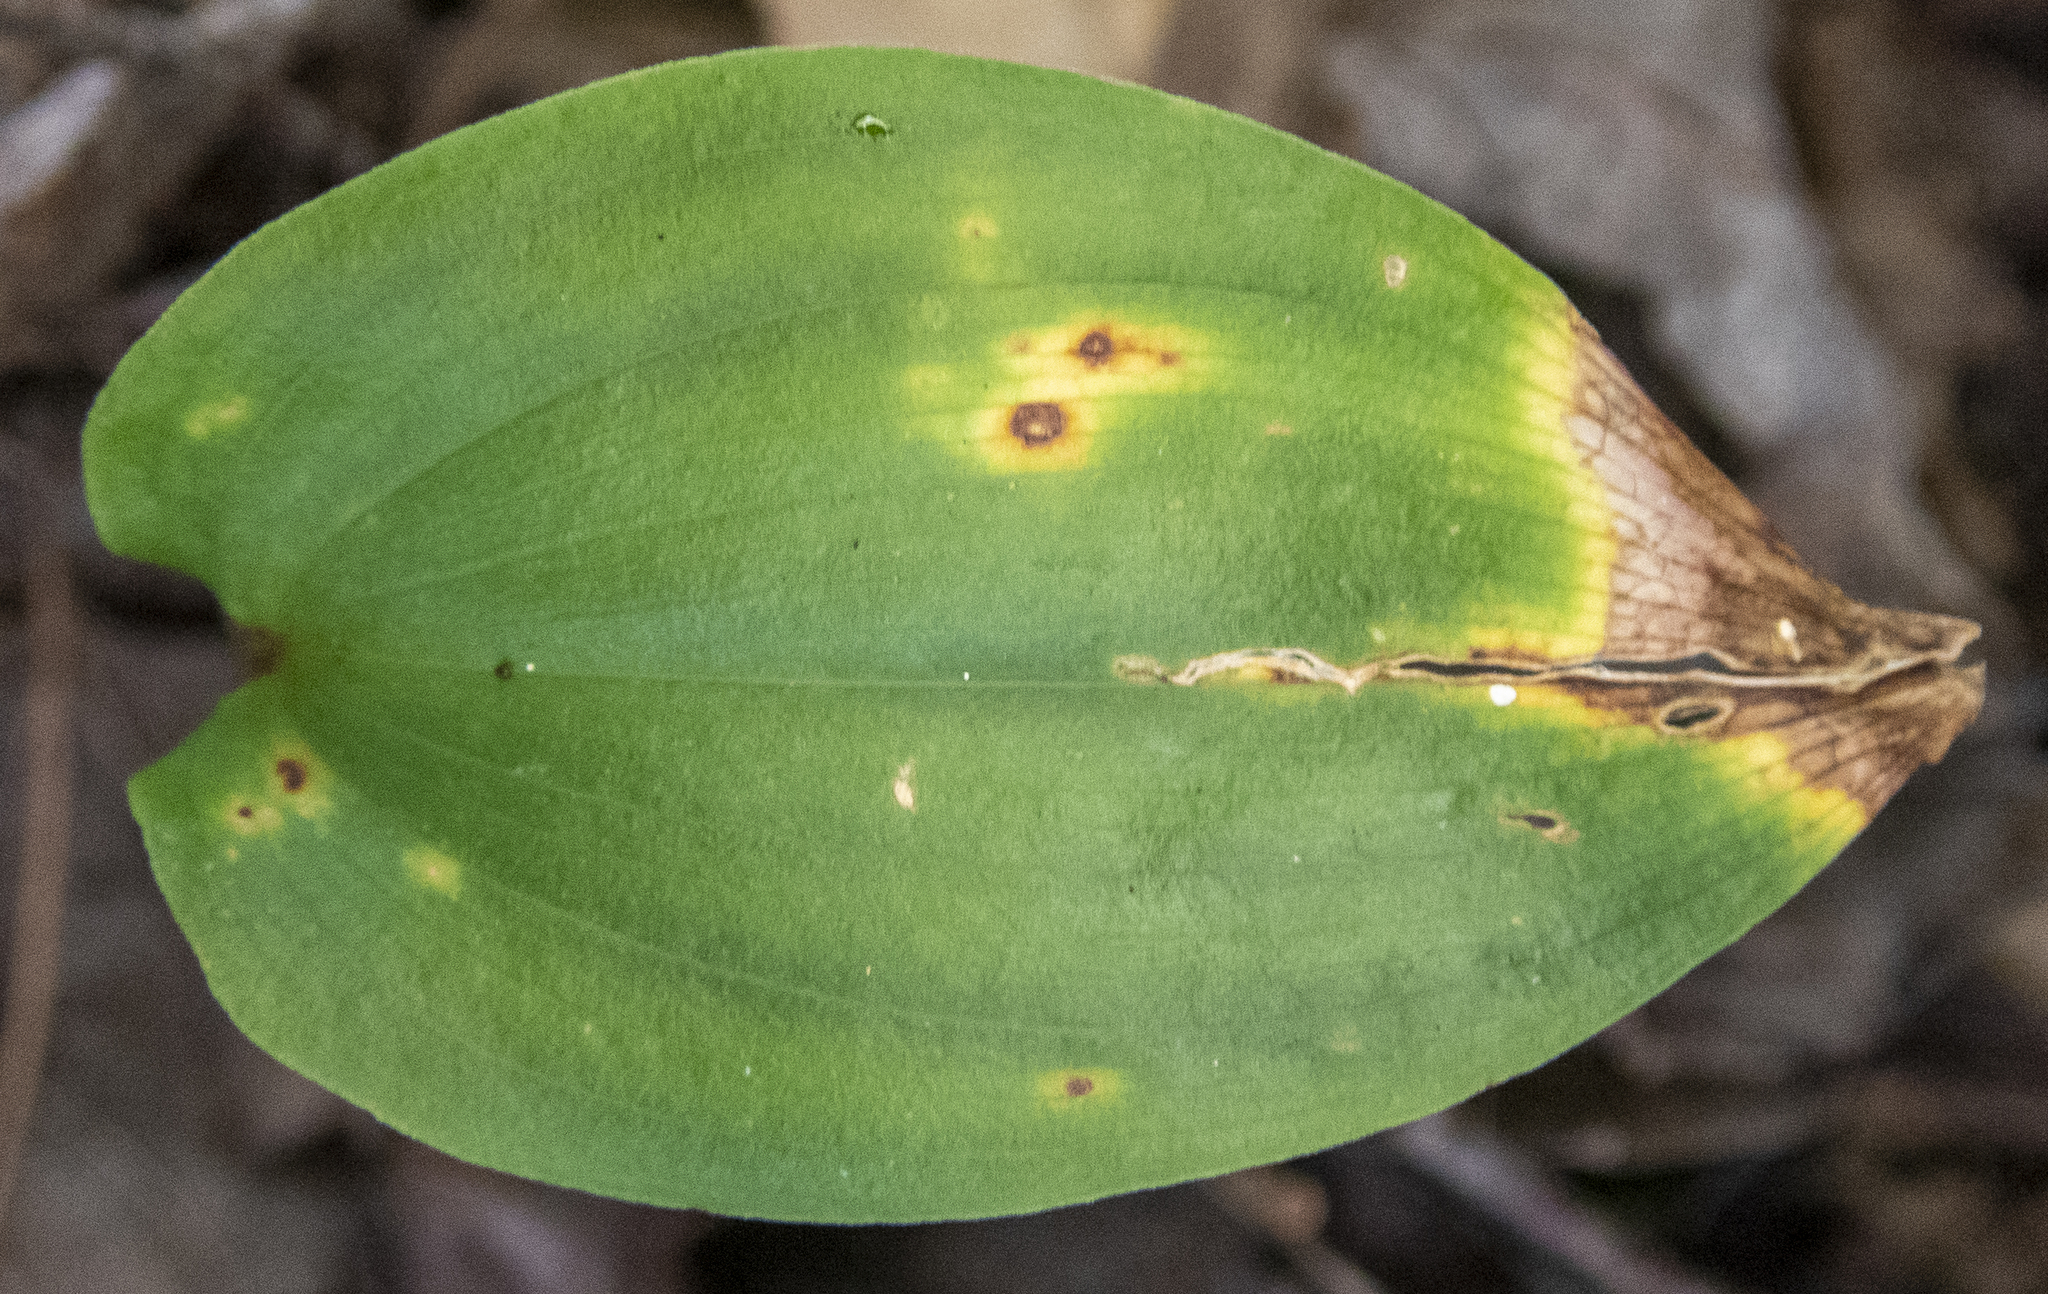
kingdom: Plantae
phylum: Tracheophyta
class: Liliopsida
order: Asparagales
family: Asparagaceae
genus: Maianthemum
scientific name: Maianthemum canadense
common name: False lily-of-the-valley
